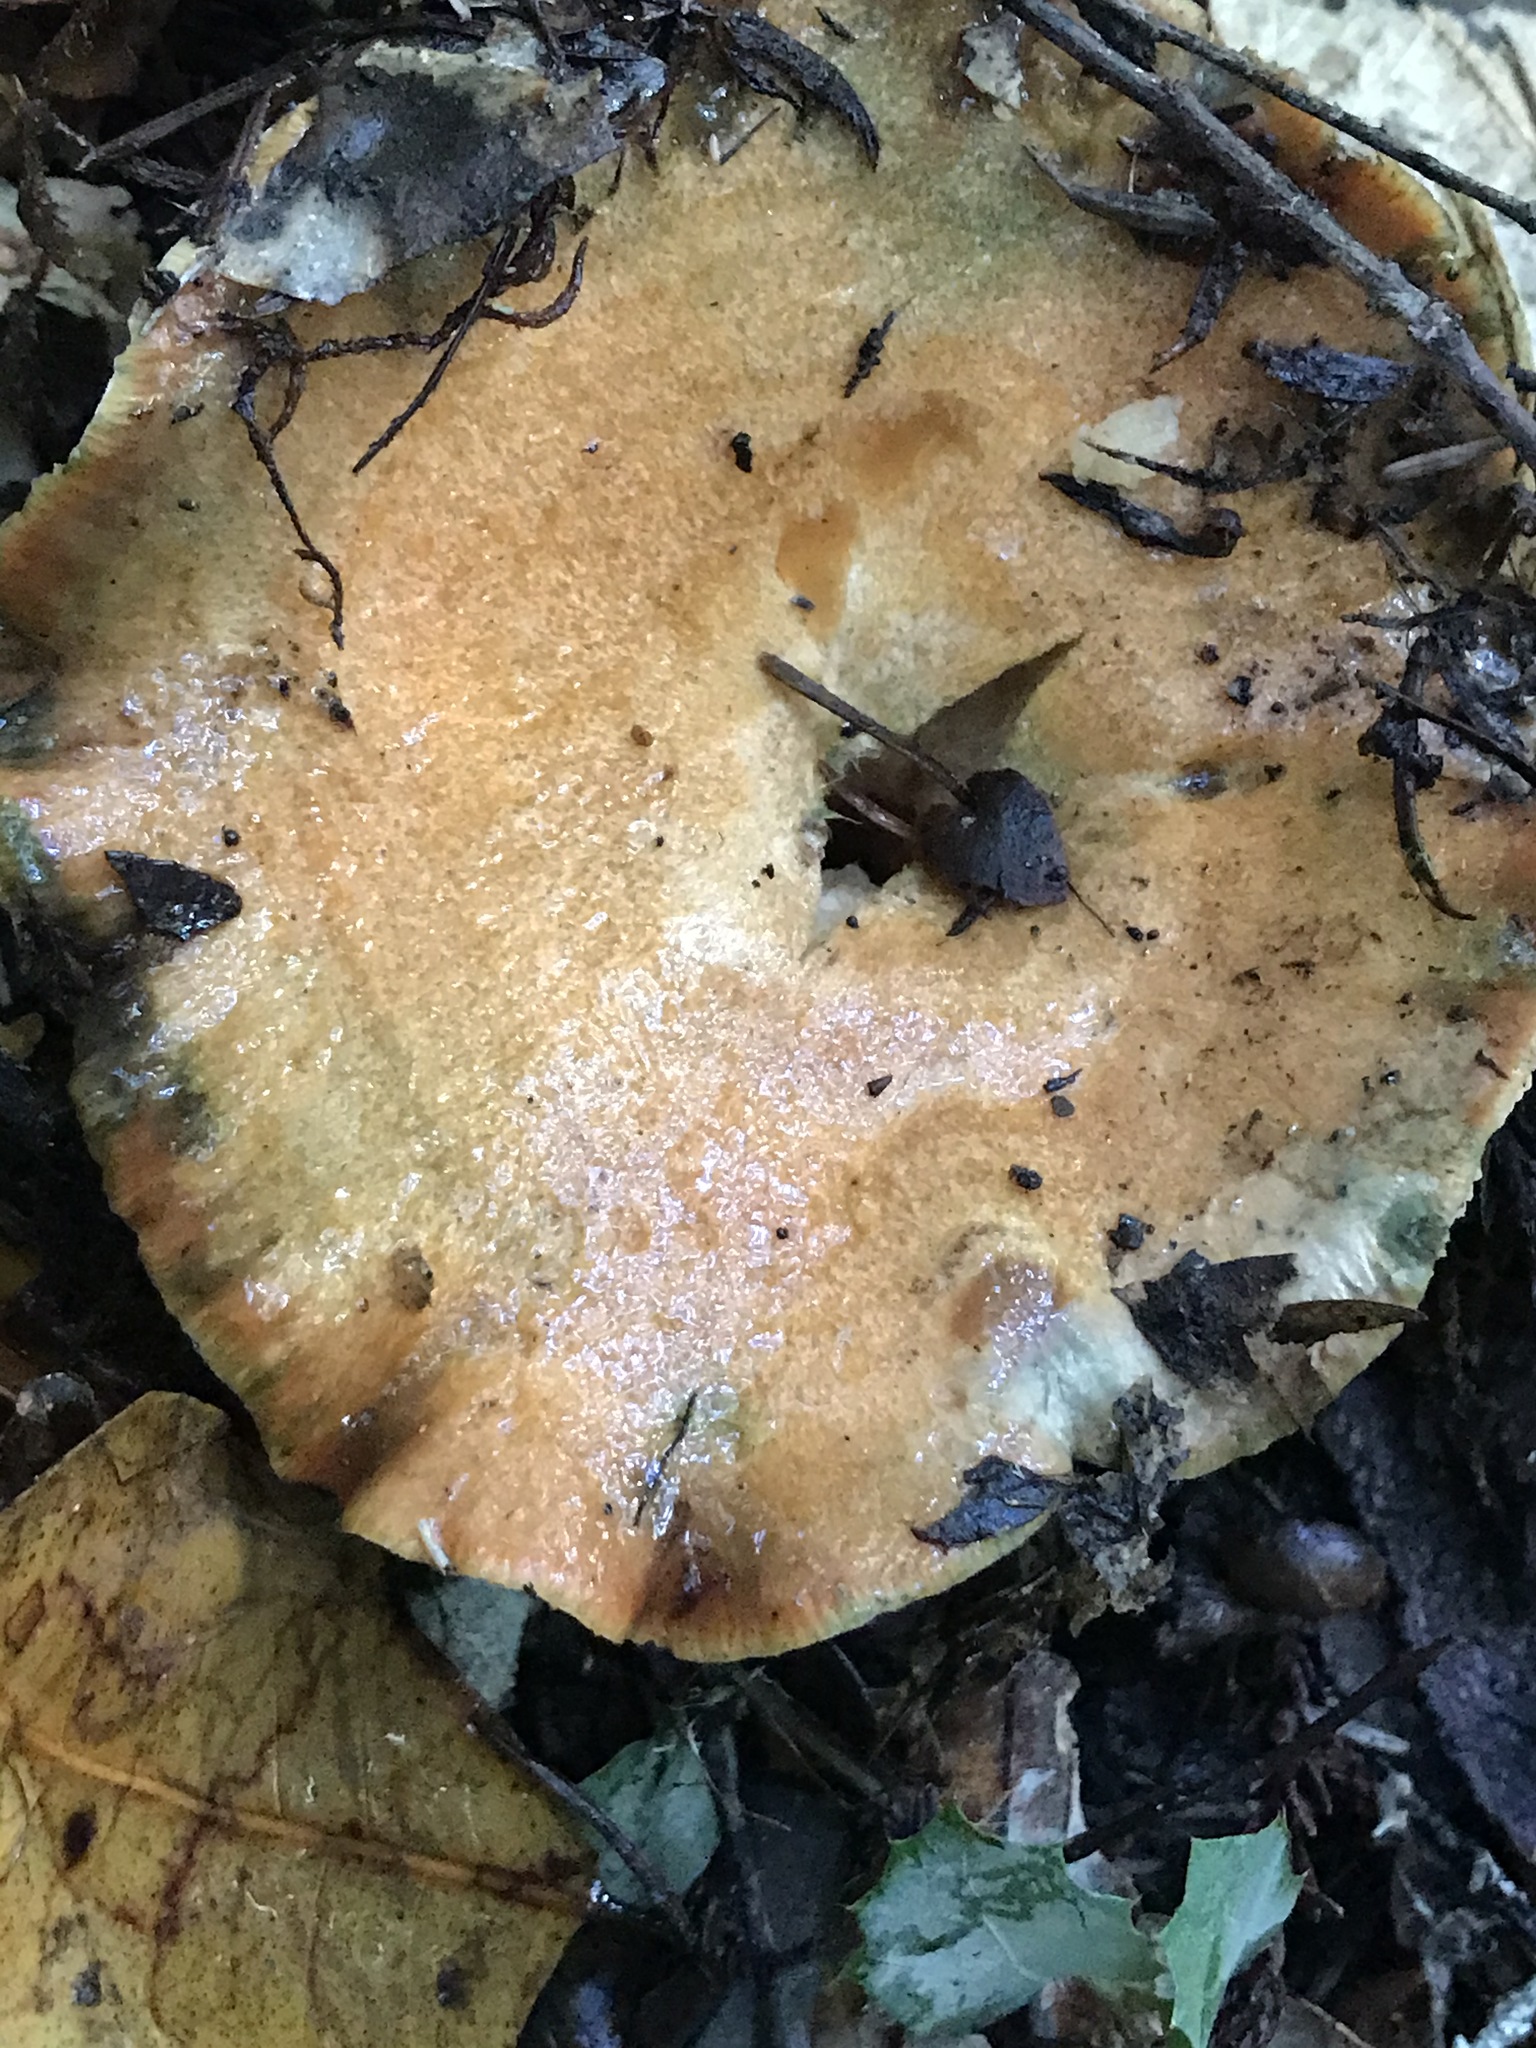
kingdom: Fungi
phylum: Basidiomycota
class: Agaricomycetes
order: Russulales
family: Russulaceae
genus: Lactarius
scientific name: Lactarius rubrilacteus
